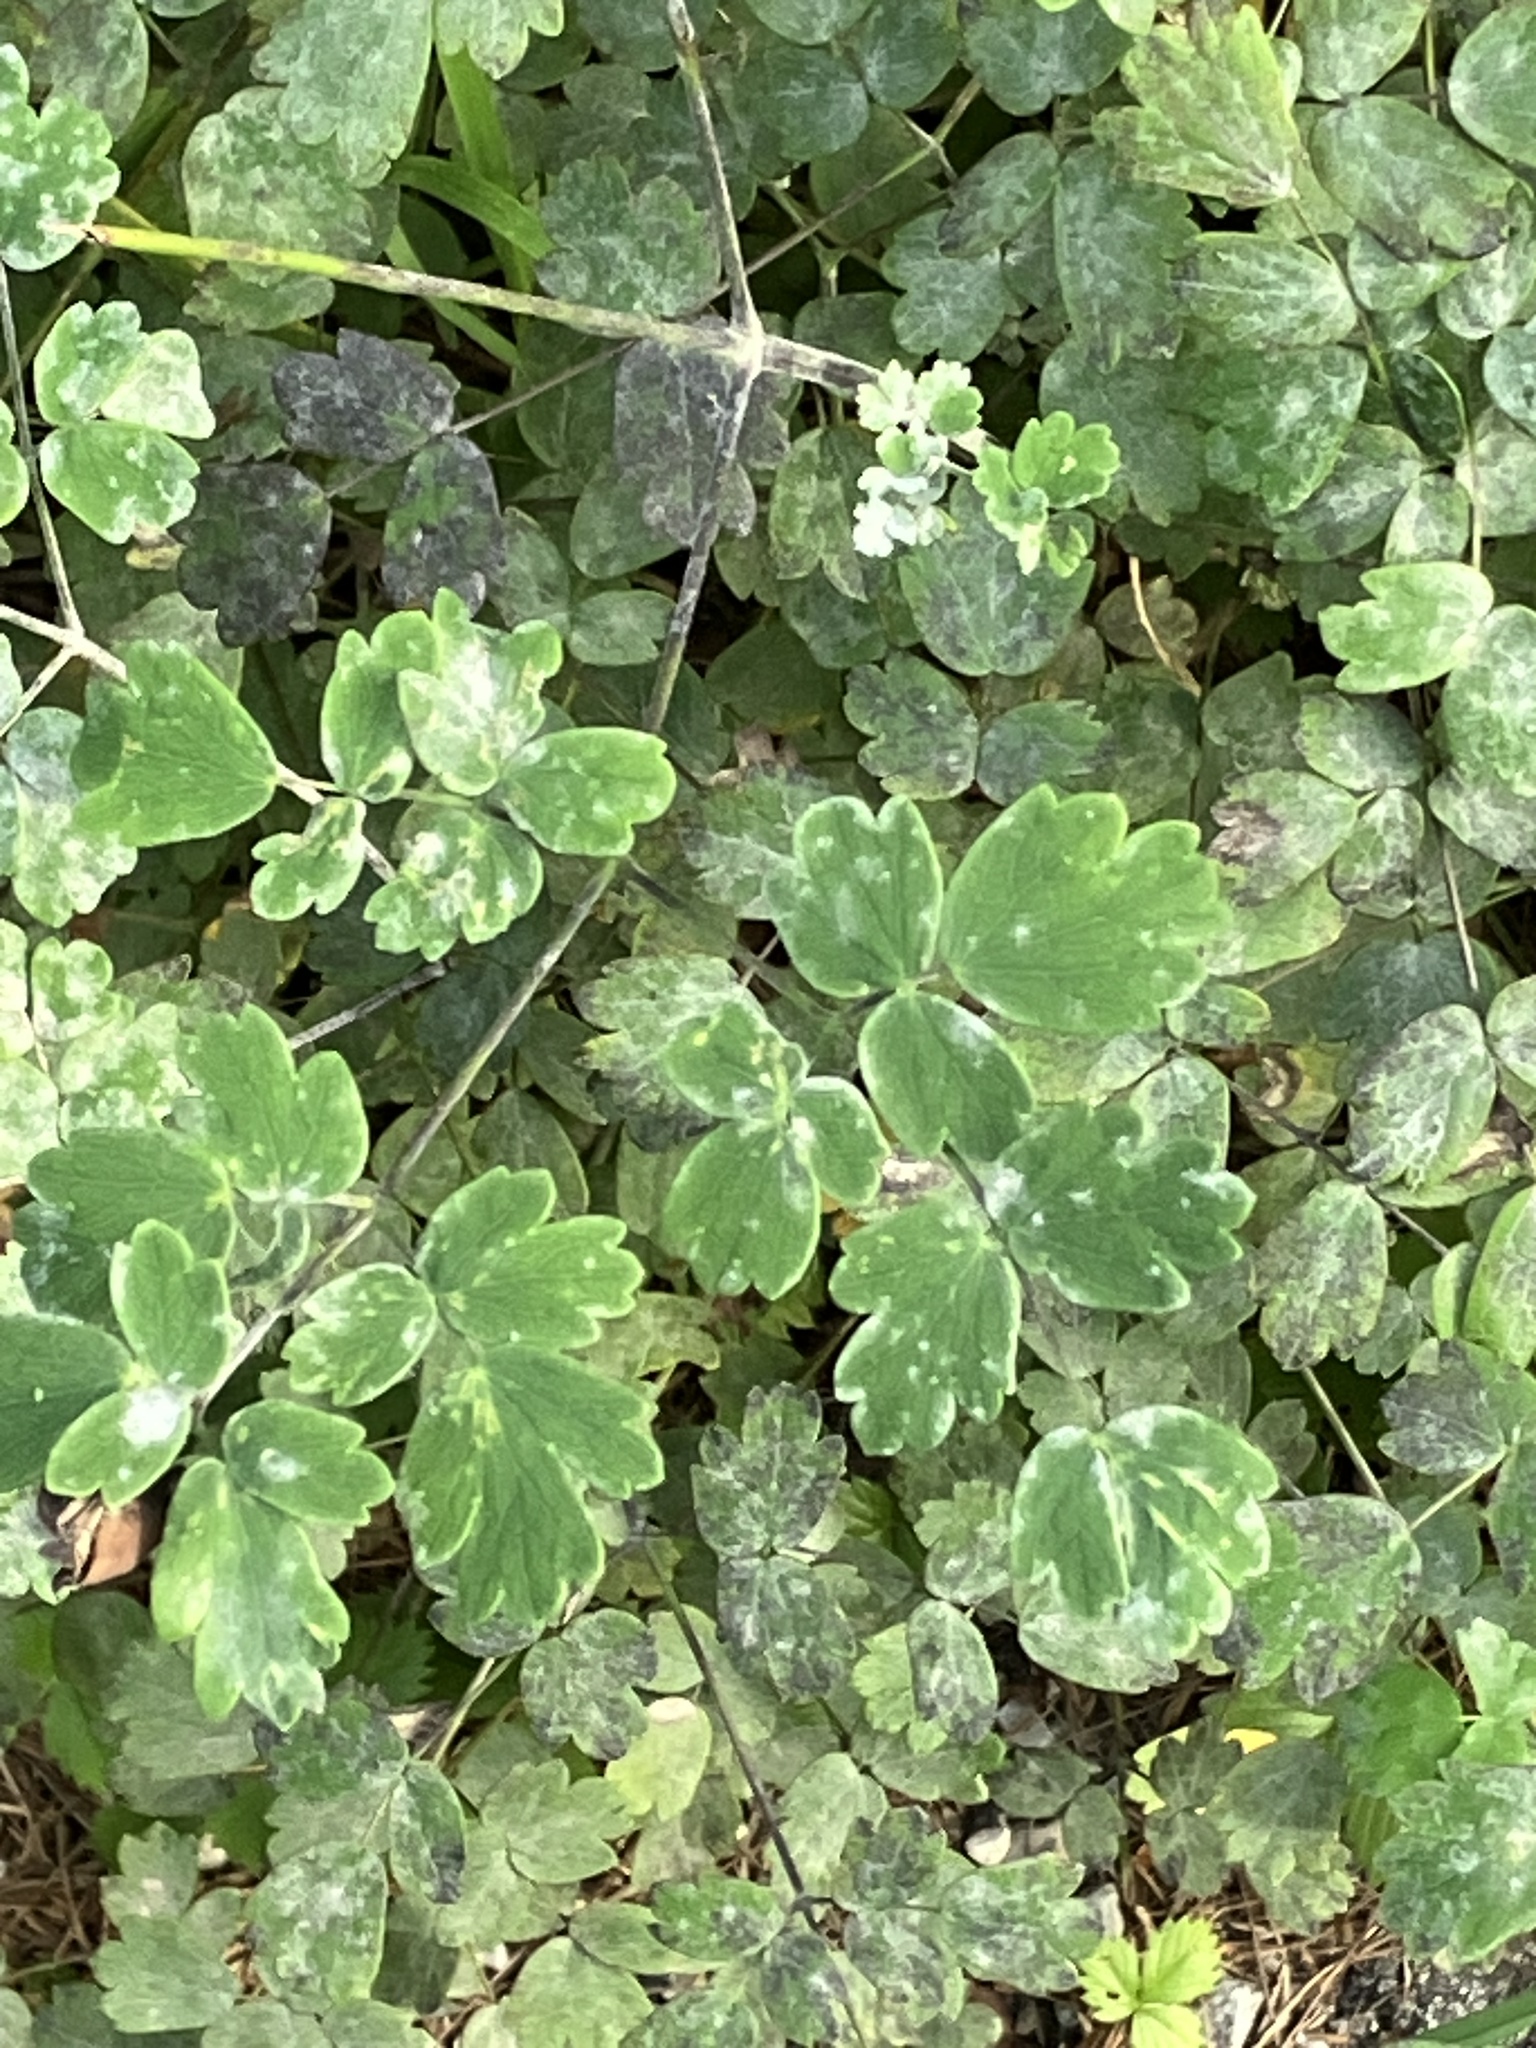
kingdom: Fungi
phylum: Ascomycota
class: Leotiomycetes
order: Helotiales
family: Erysiphaceae
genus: Erysiphe
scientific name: Erysiphe aquilegiae
